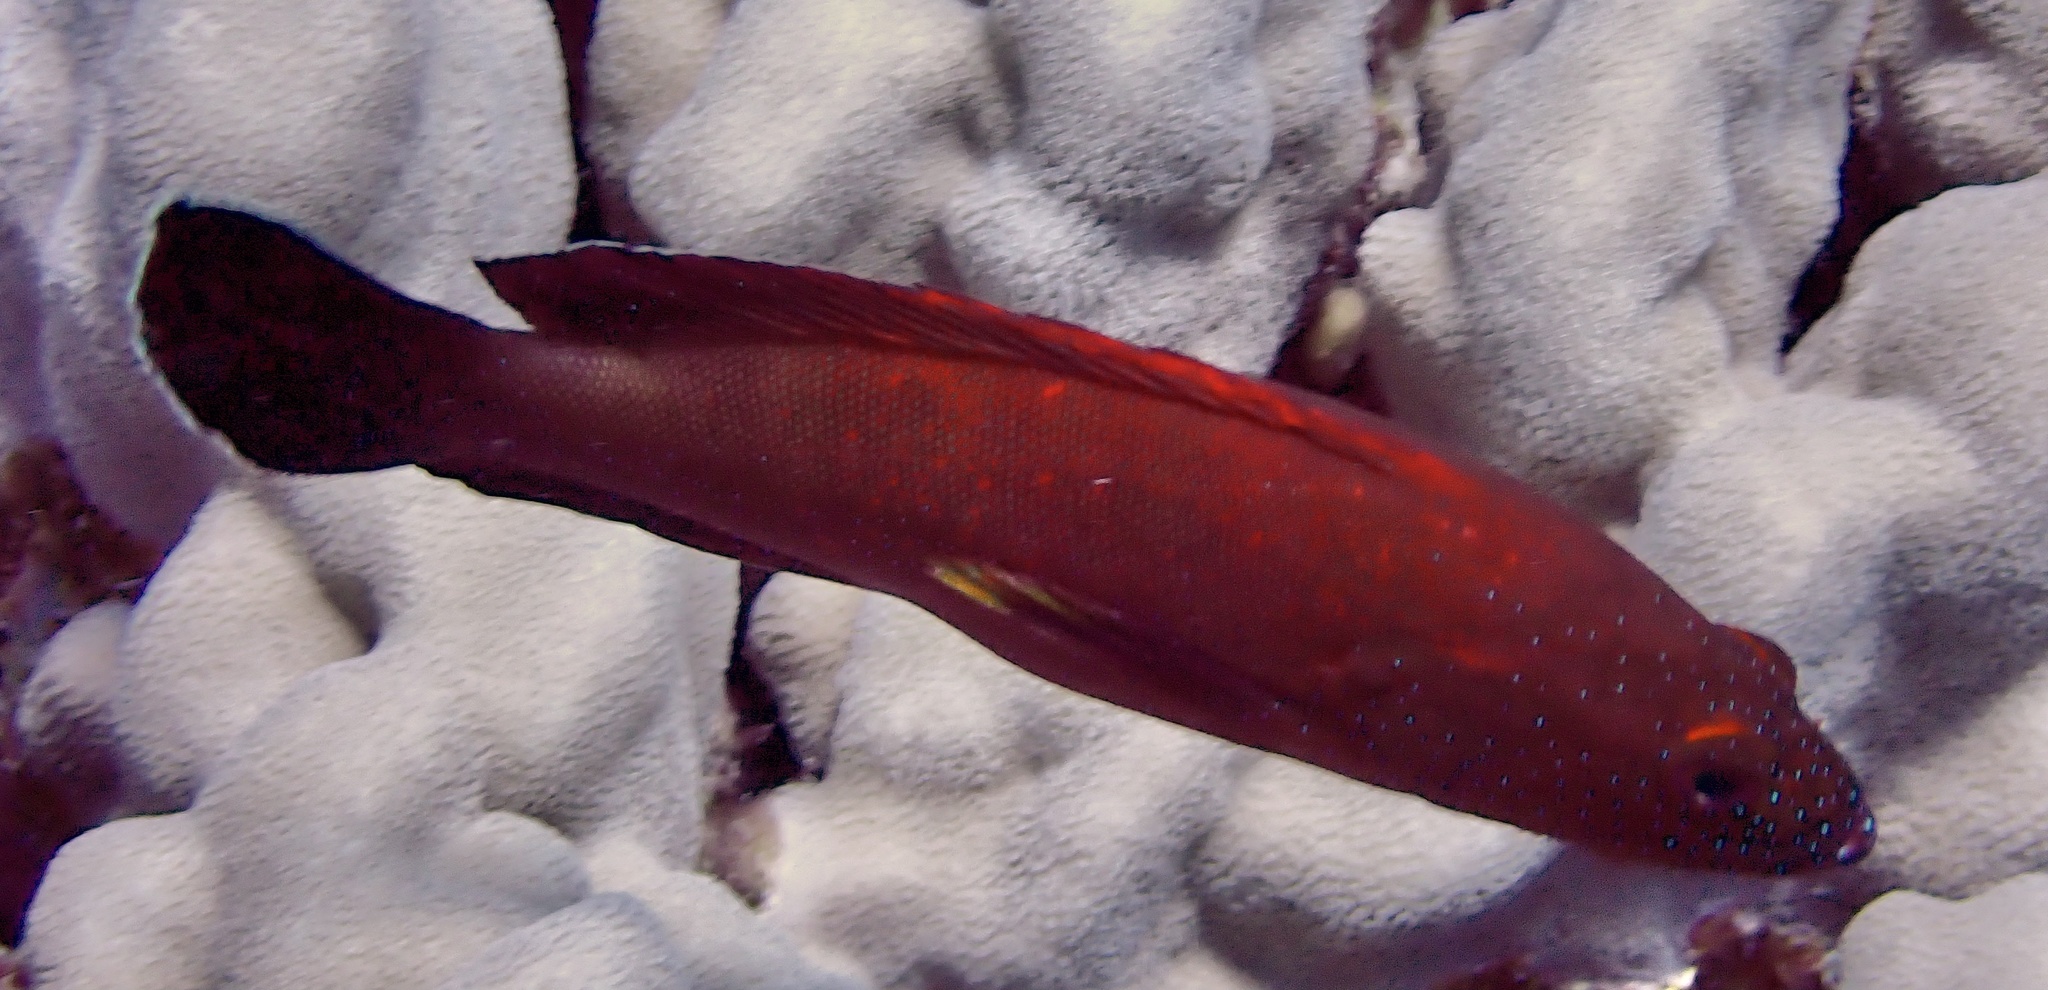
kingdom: Animalia
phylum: Chordata
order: Perciformes
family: Serranidae
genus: Cephalopholis
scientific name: Cephalopholis hemistiktos
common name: Halfspotted hind
